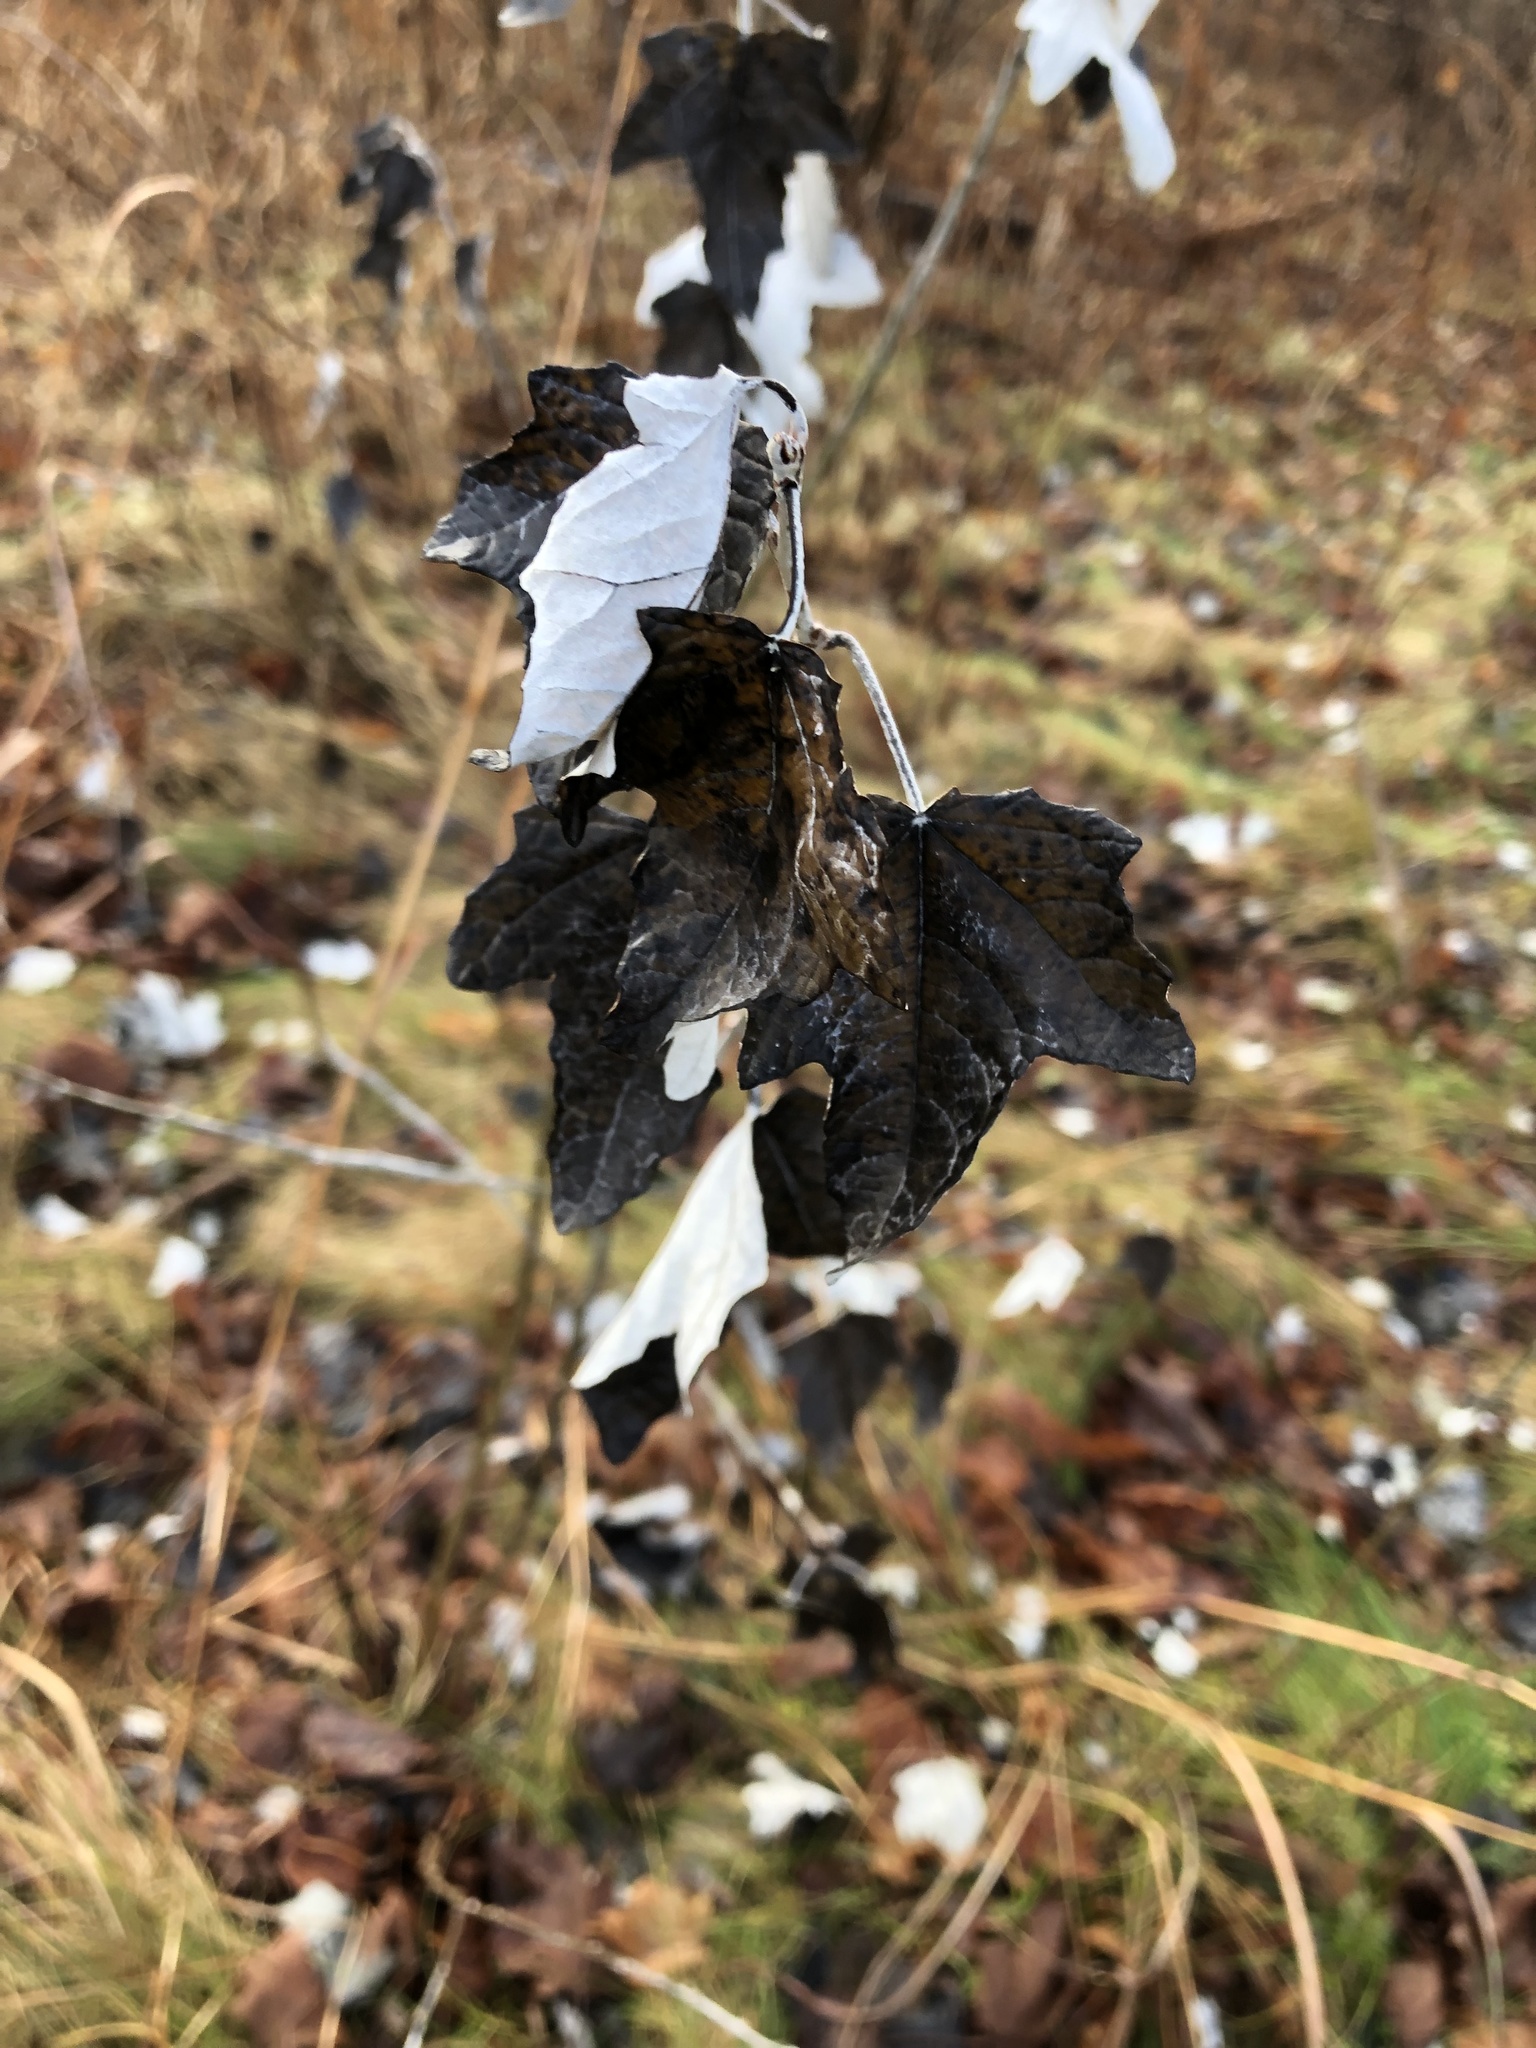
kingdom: Plantae
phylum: Tracheophyta
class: Magnoliopsida
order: Malpighiales
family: Salicaceae
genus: Populus
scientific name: Populus alba
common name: White poplar
